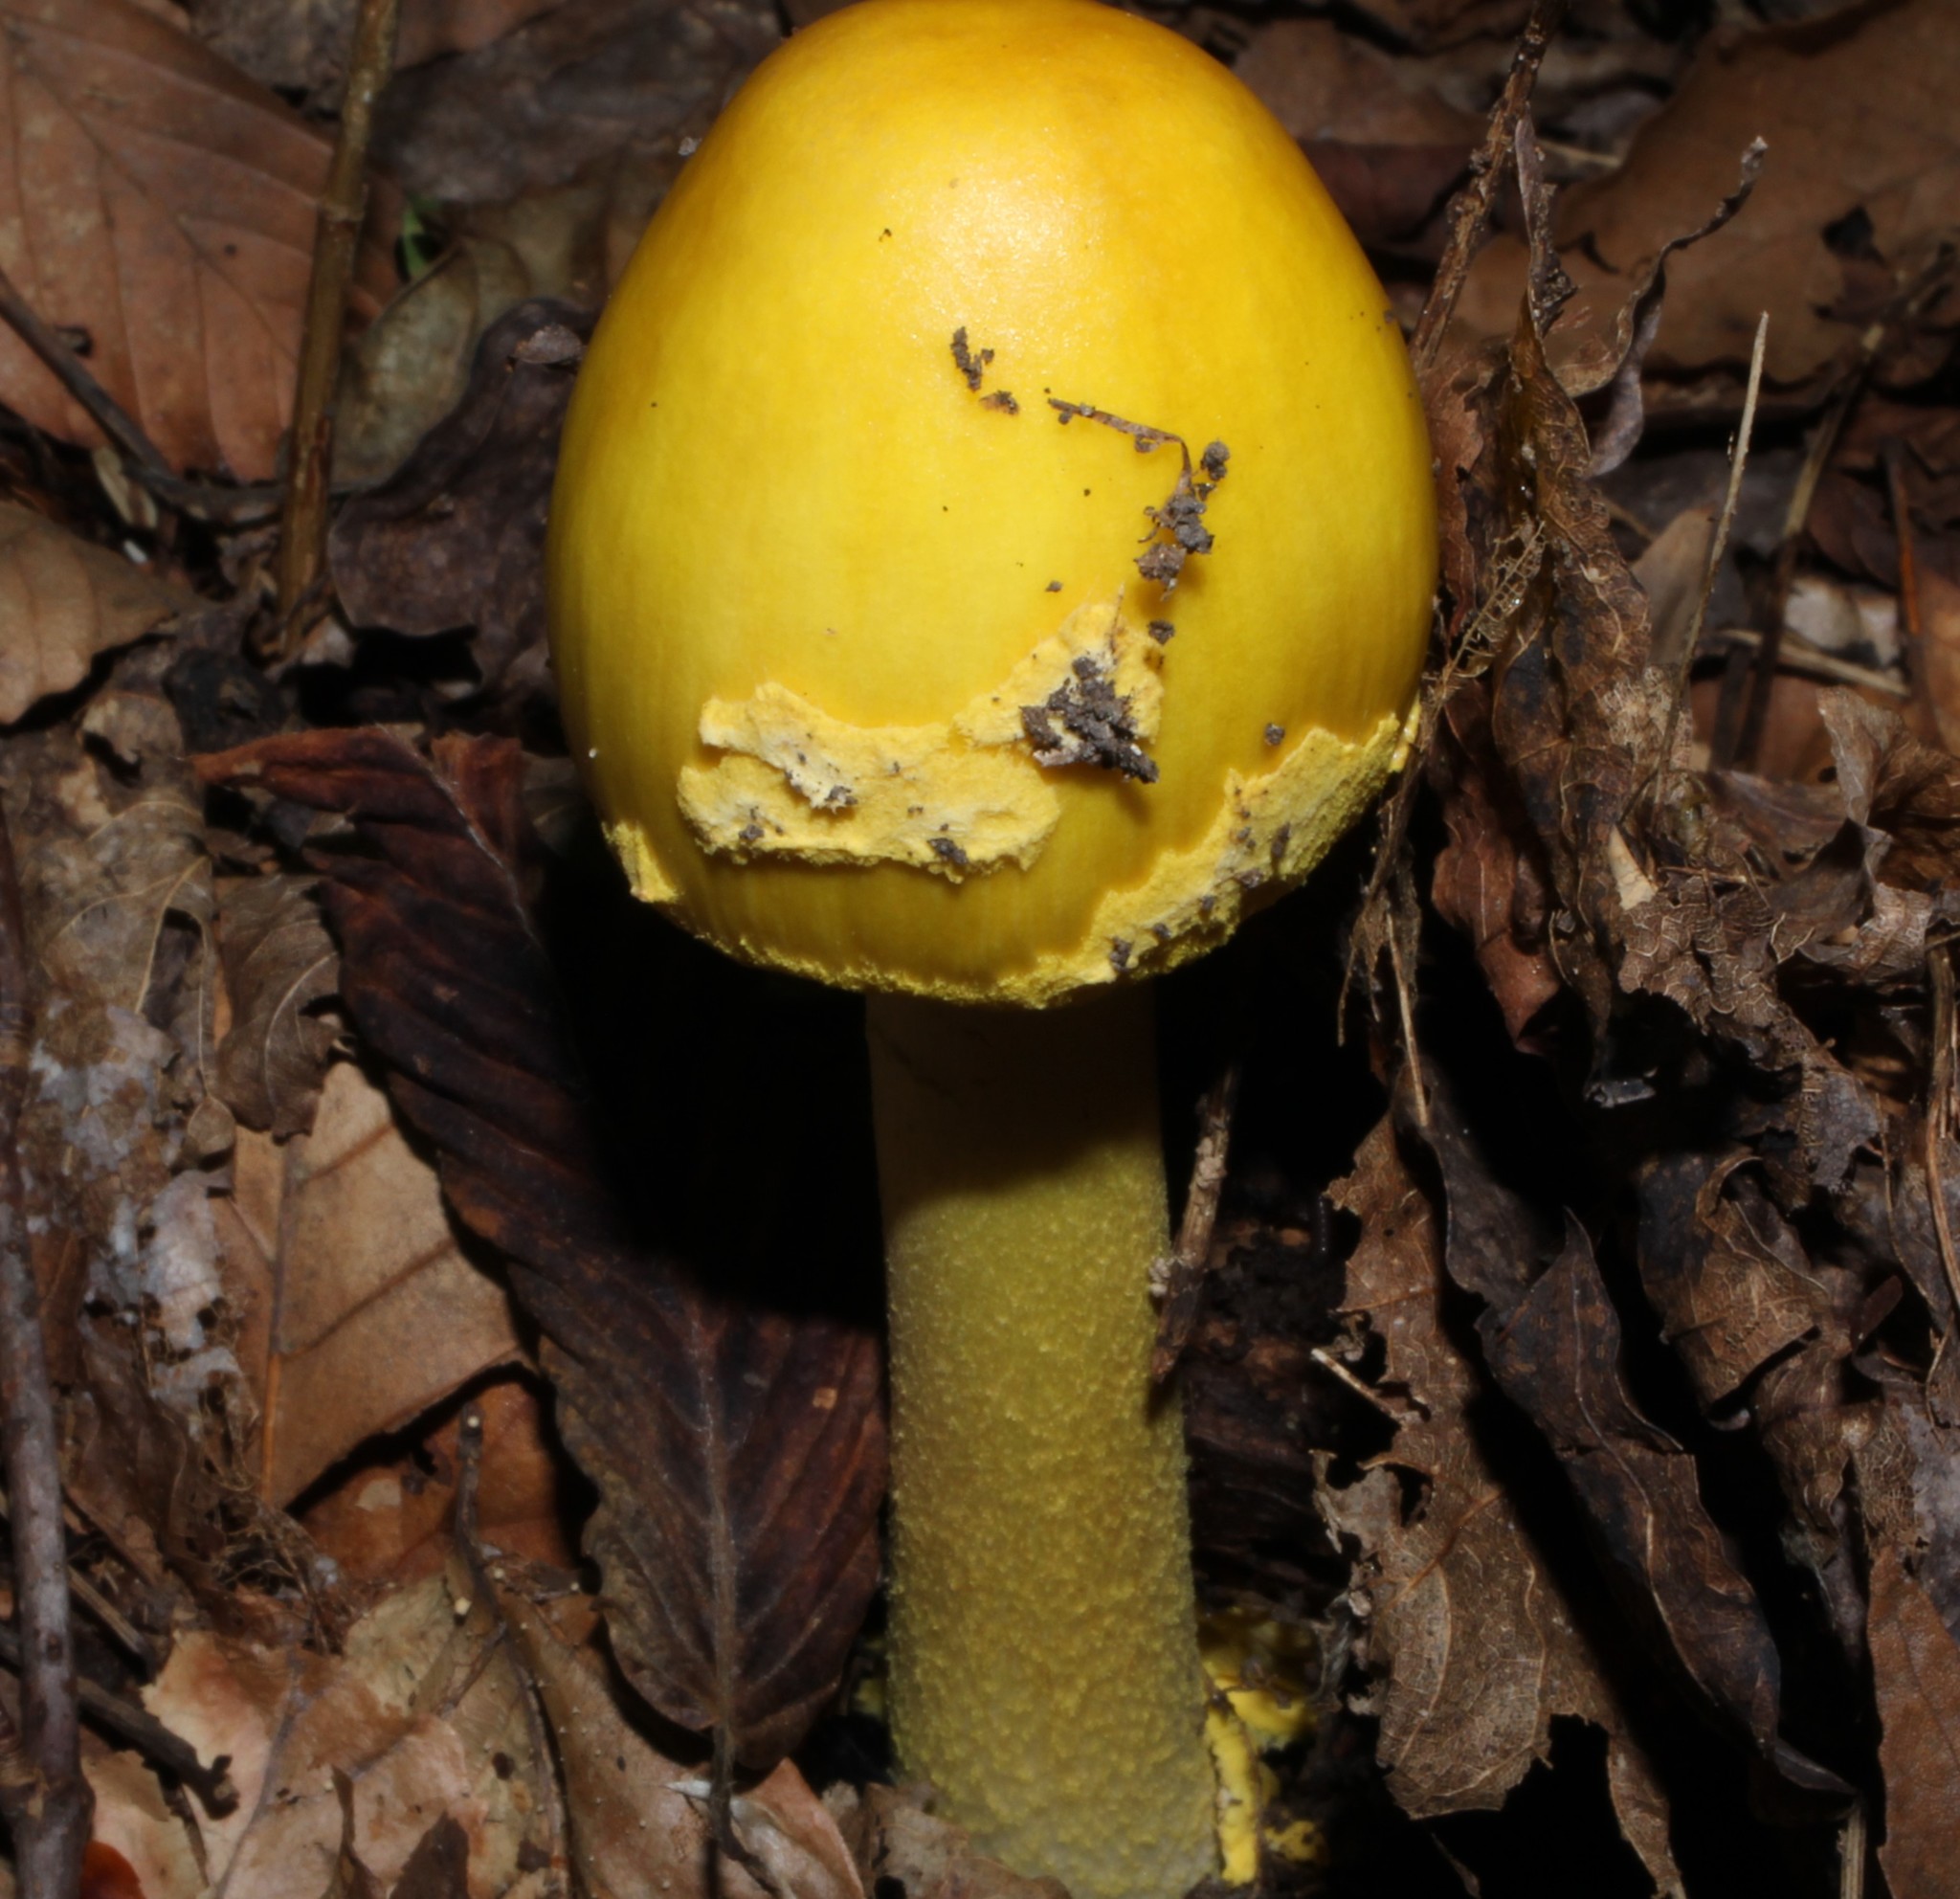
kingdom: Fungi
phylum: Basidiomycota
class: Agaricomycetes
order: Agaricales
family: Amanitaceae
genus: Amanita
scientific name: Amanita flavoconia
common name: Yellow patches
